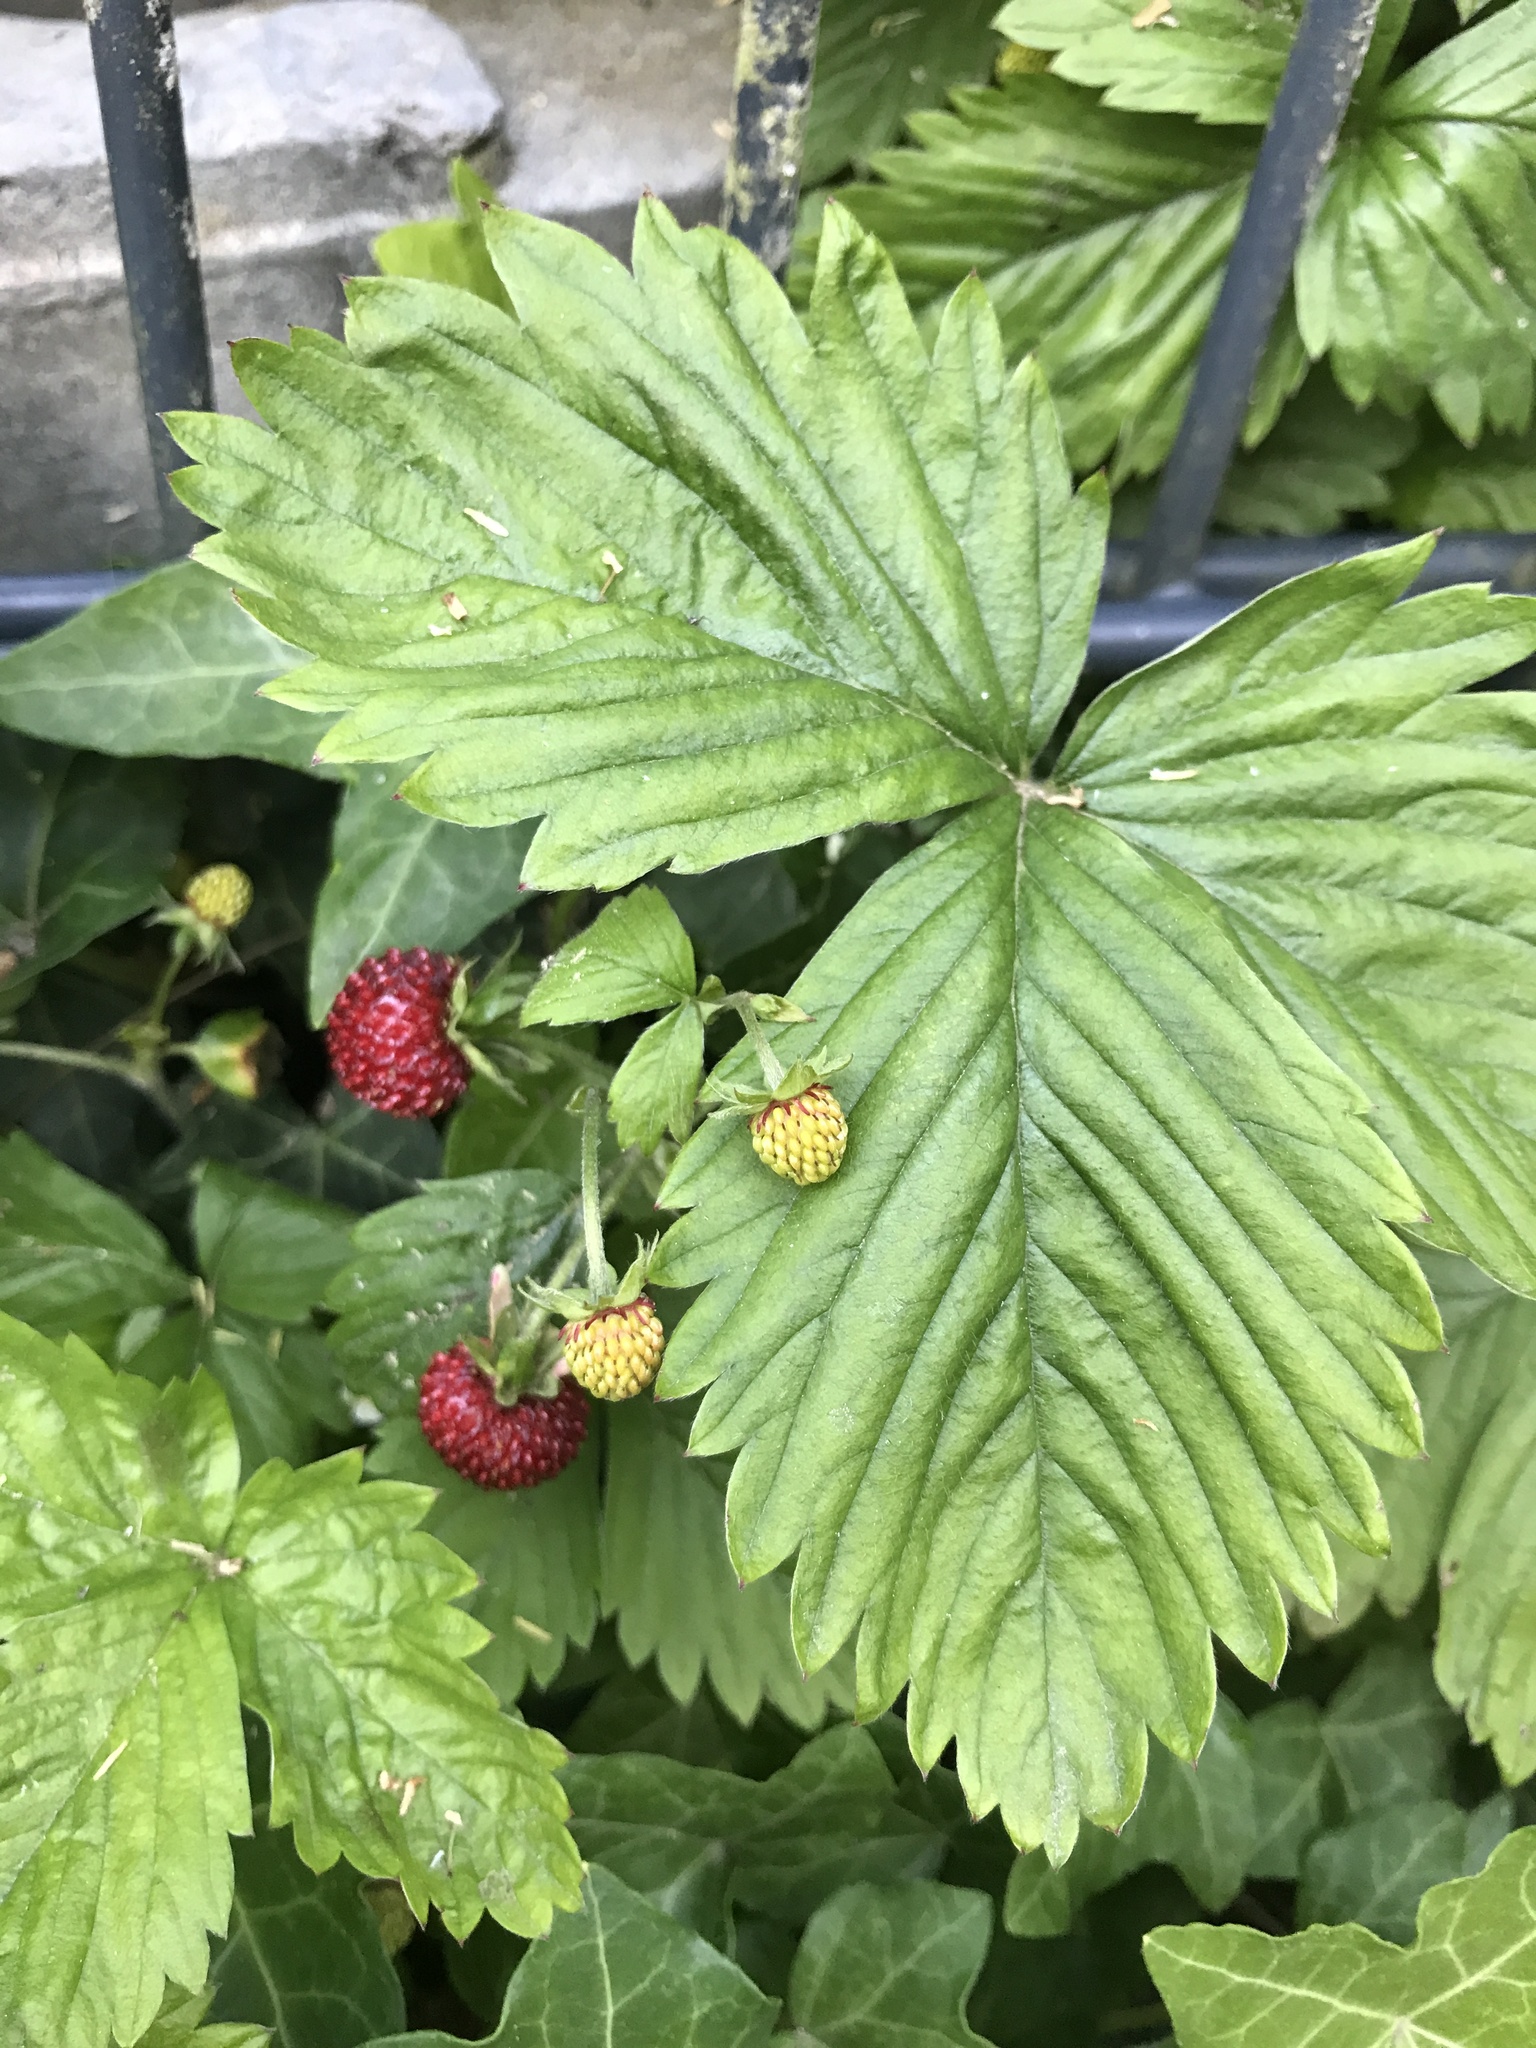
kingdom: Plantae
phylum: Tracheophyta
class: Magnoliopsida
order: Rosales
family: Rosaceae
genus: Fragaria
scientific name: Fragaria vesca
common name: Wild strawberry
